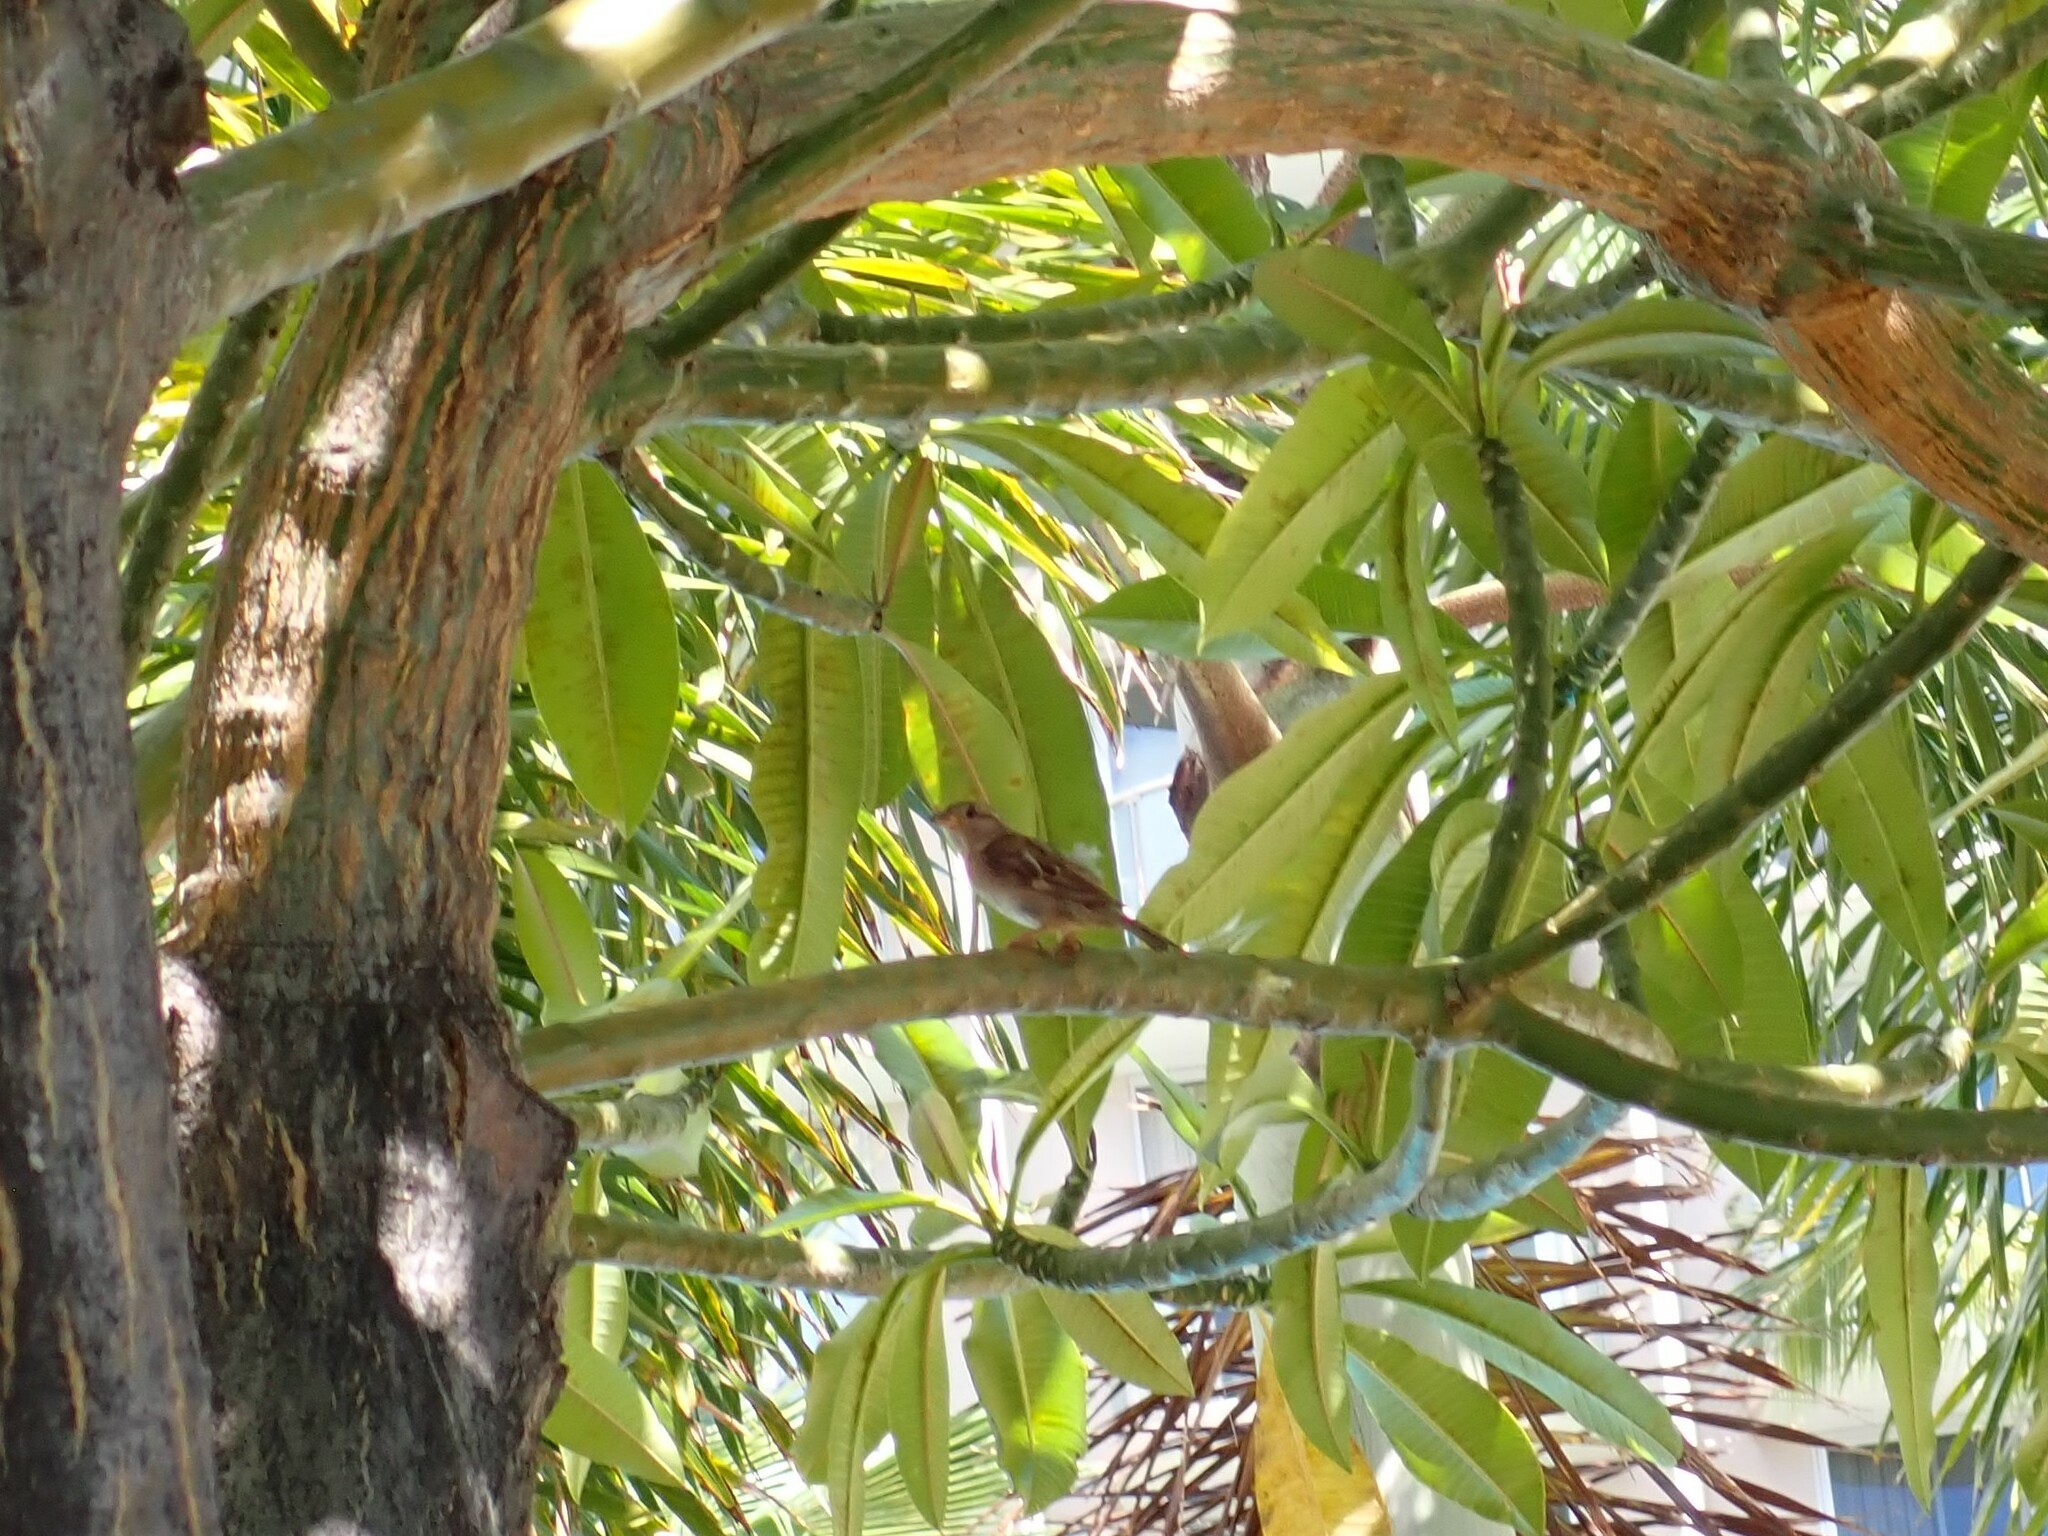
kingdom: Animalia
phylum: Chordata
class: Aves
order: Passeriformes
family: Passeridae
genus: Passer
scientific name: Passer domesticus
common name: House sparrow
